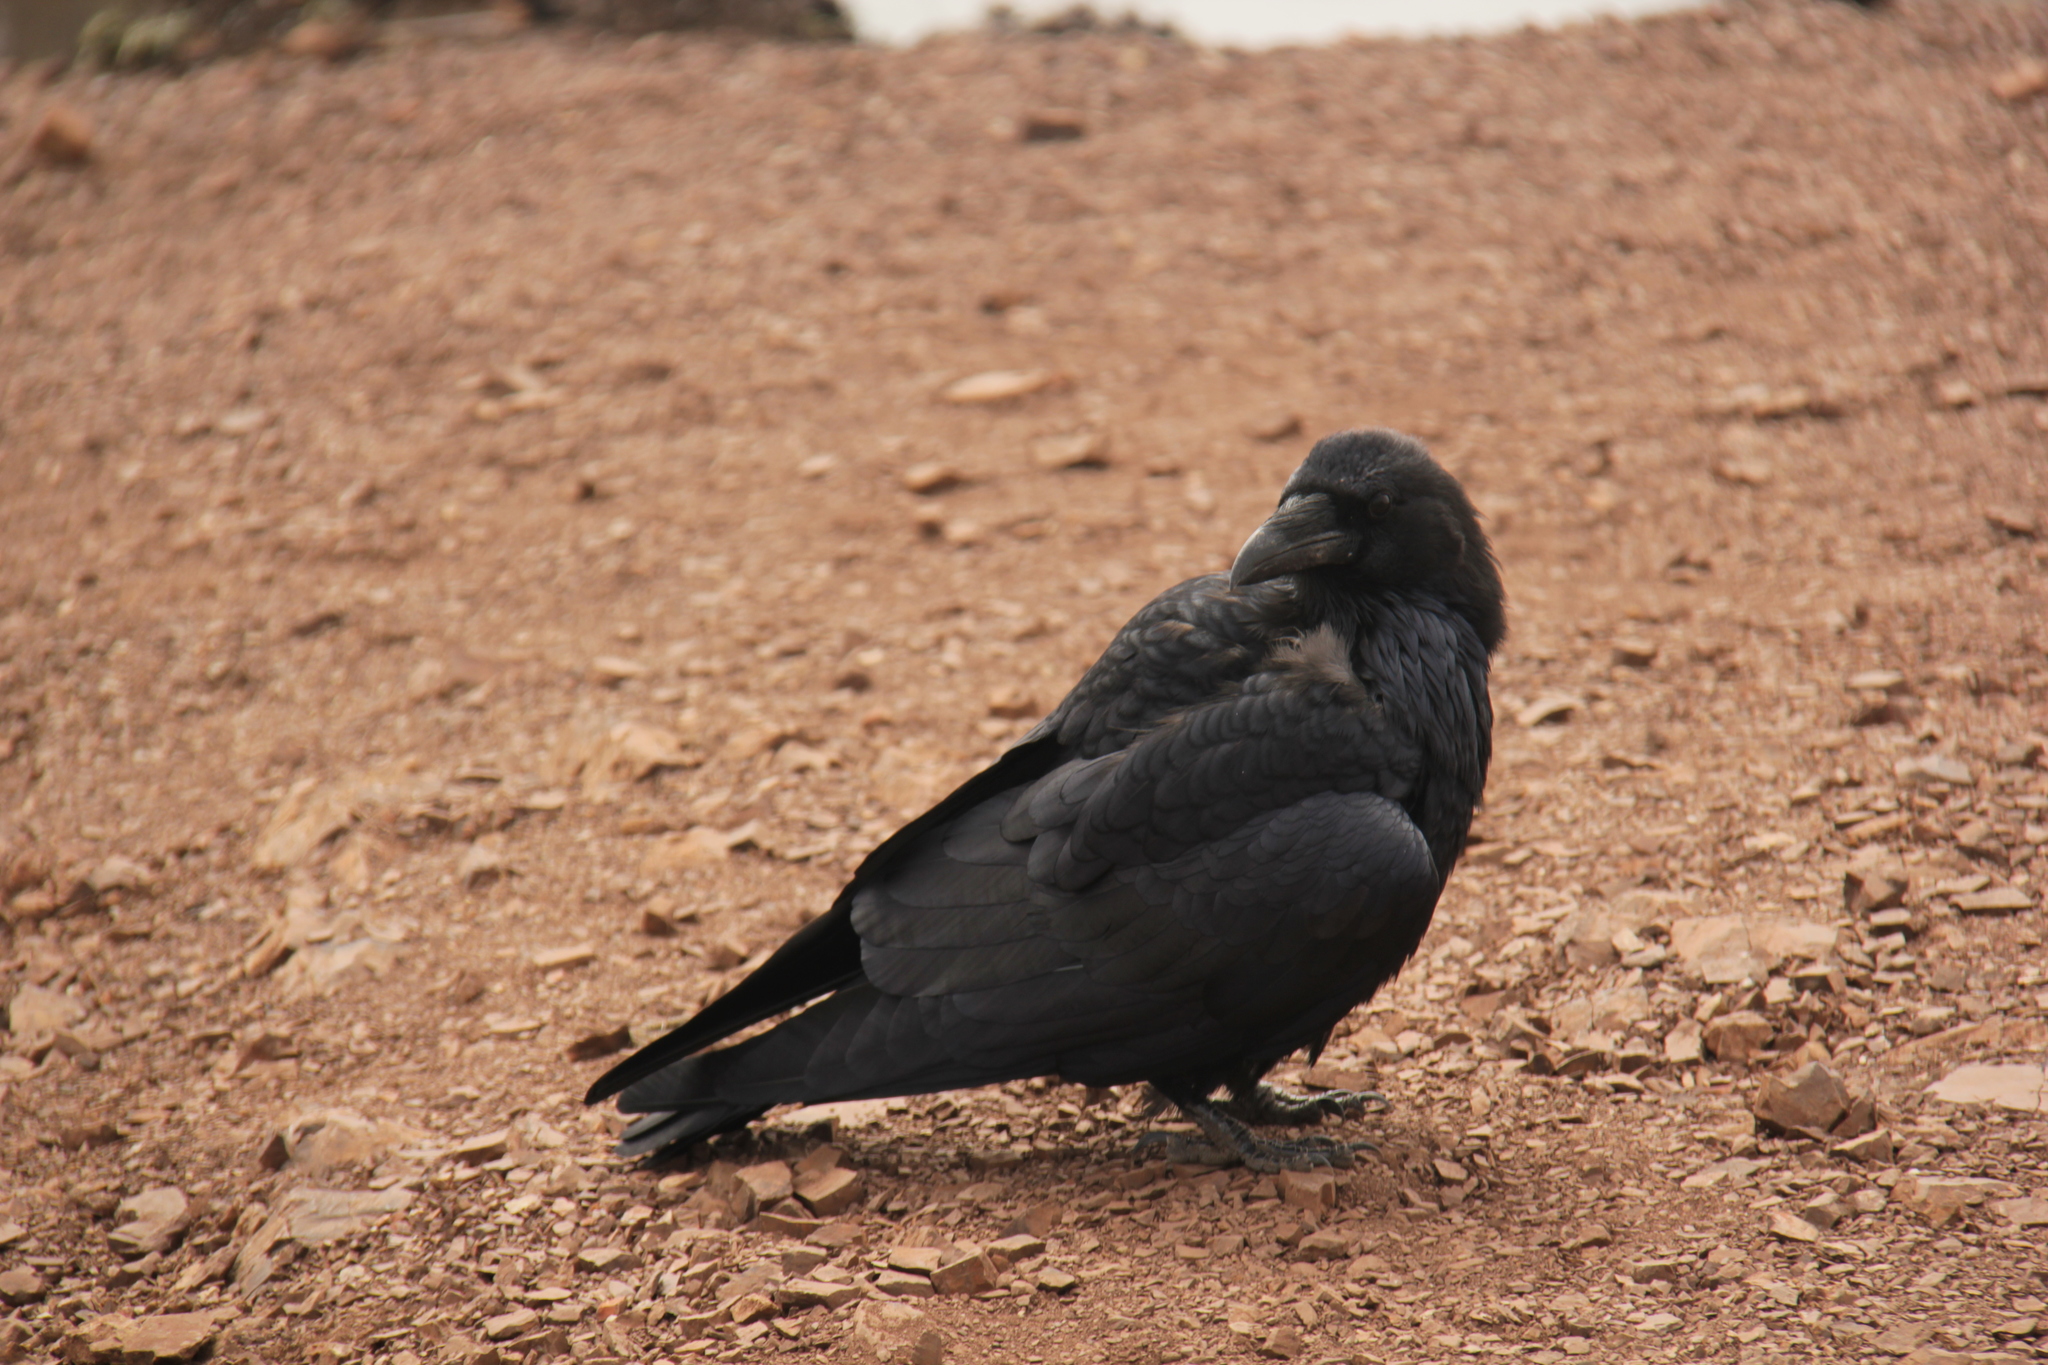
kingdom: Animalia
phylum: Chordata
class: Aves
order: Passeriformes
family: Corvidae
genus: Corvus
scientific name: Corvus corax
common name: Common raven
